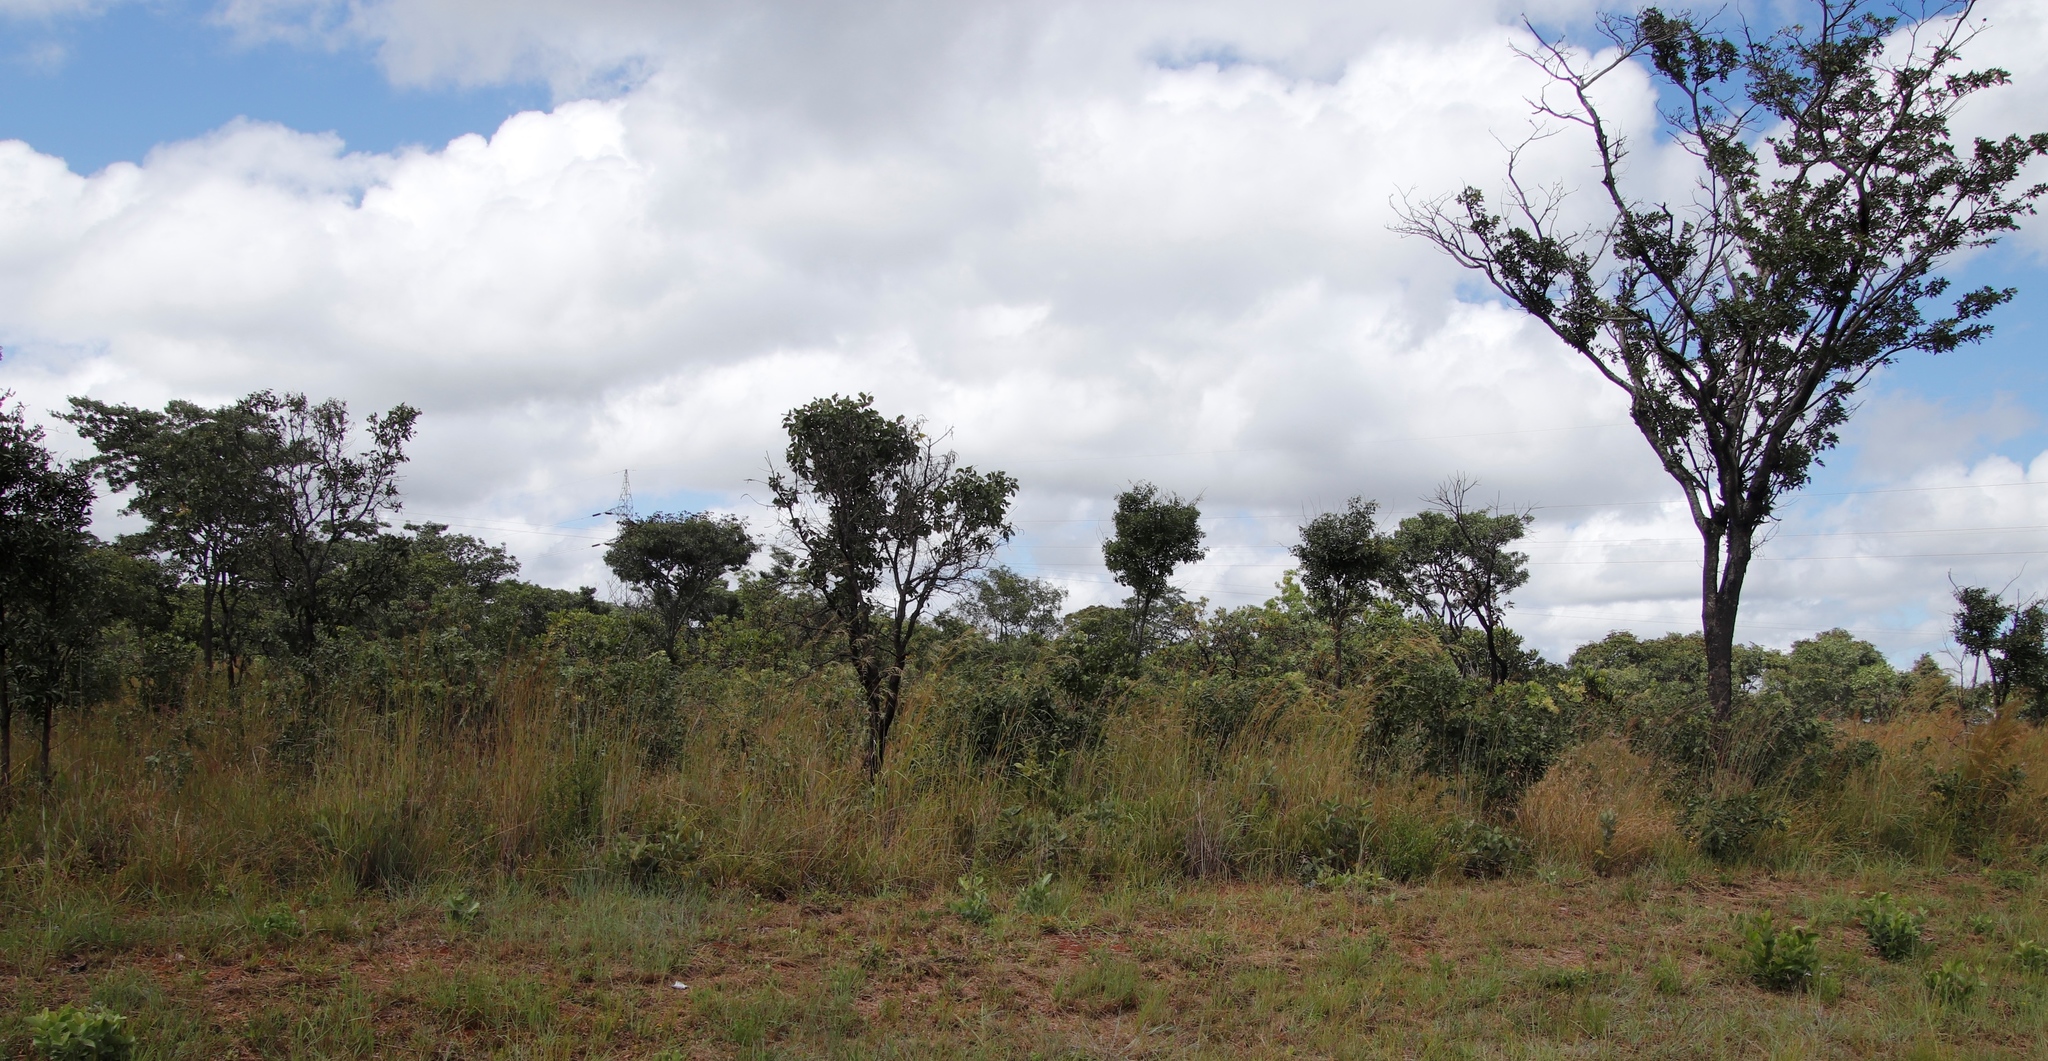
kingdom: Plantae
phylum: Tracheophyta
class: Liliopsida
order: Poales
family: Poaceae
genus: Hyperthelia
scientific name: Hyperthelia dissoluta
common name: Yellow thatching grass
